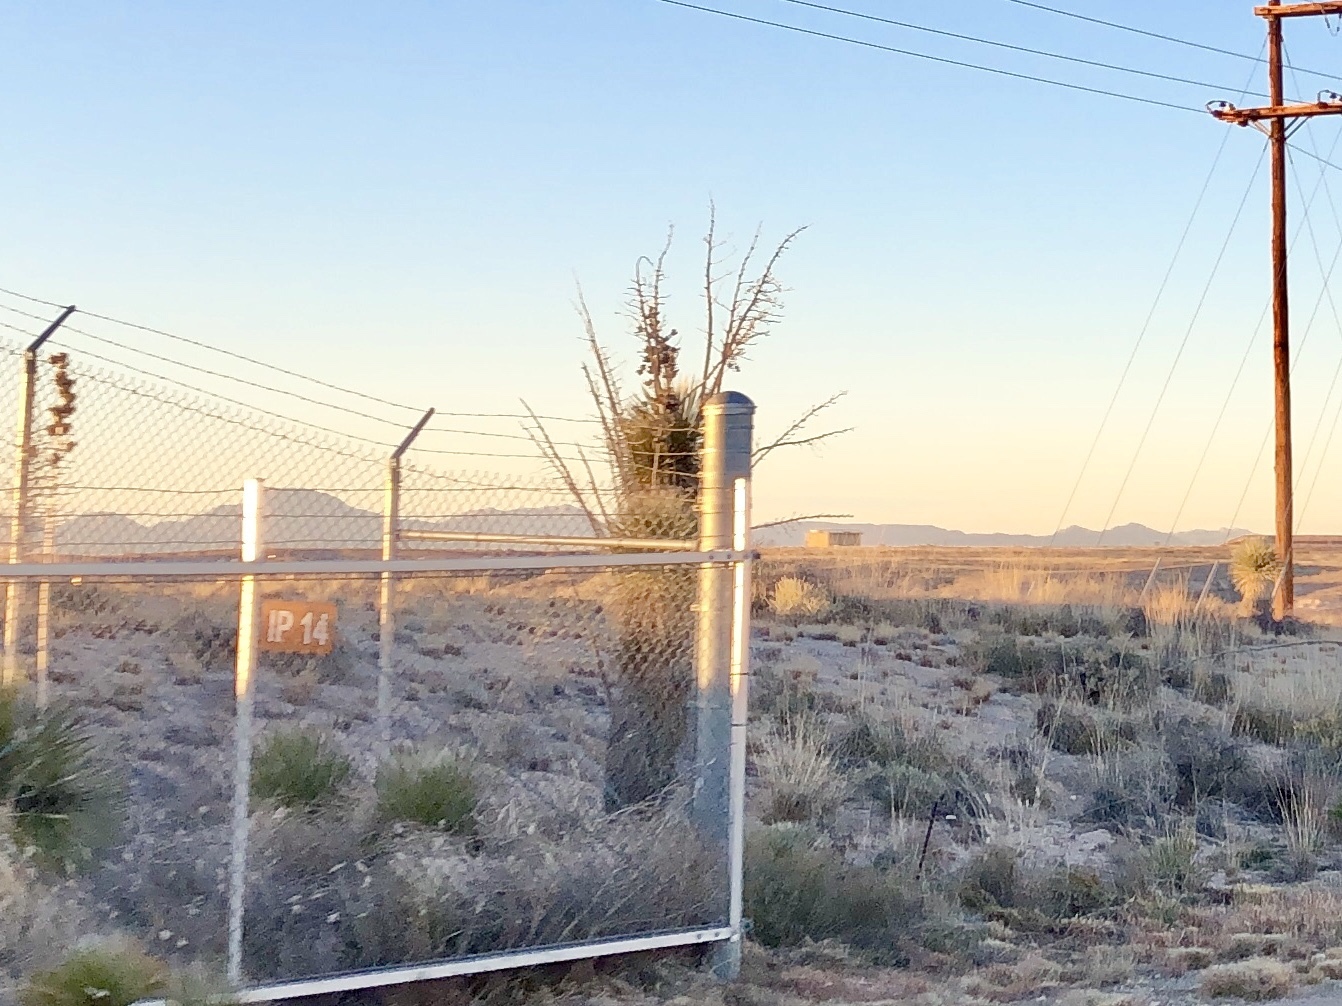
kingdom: Plantae
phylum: Tracheophyta
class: Liliopsida
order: Asparagales
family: Asparagaceae
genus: Yucca
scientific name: Yucca elata
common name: Palmella
